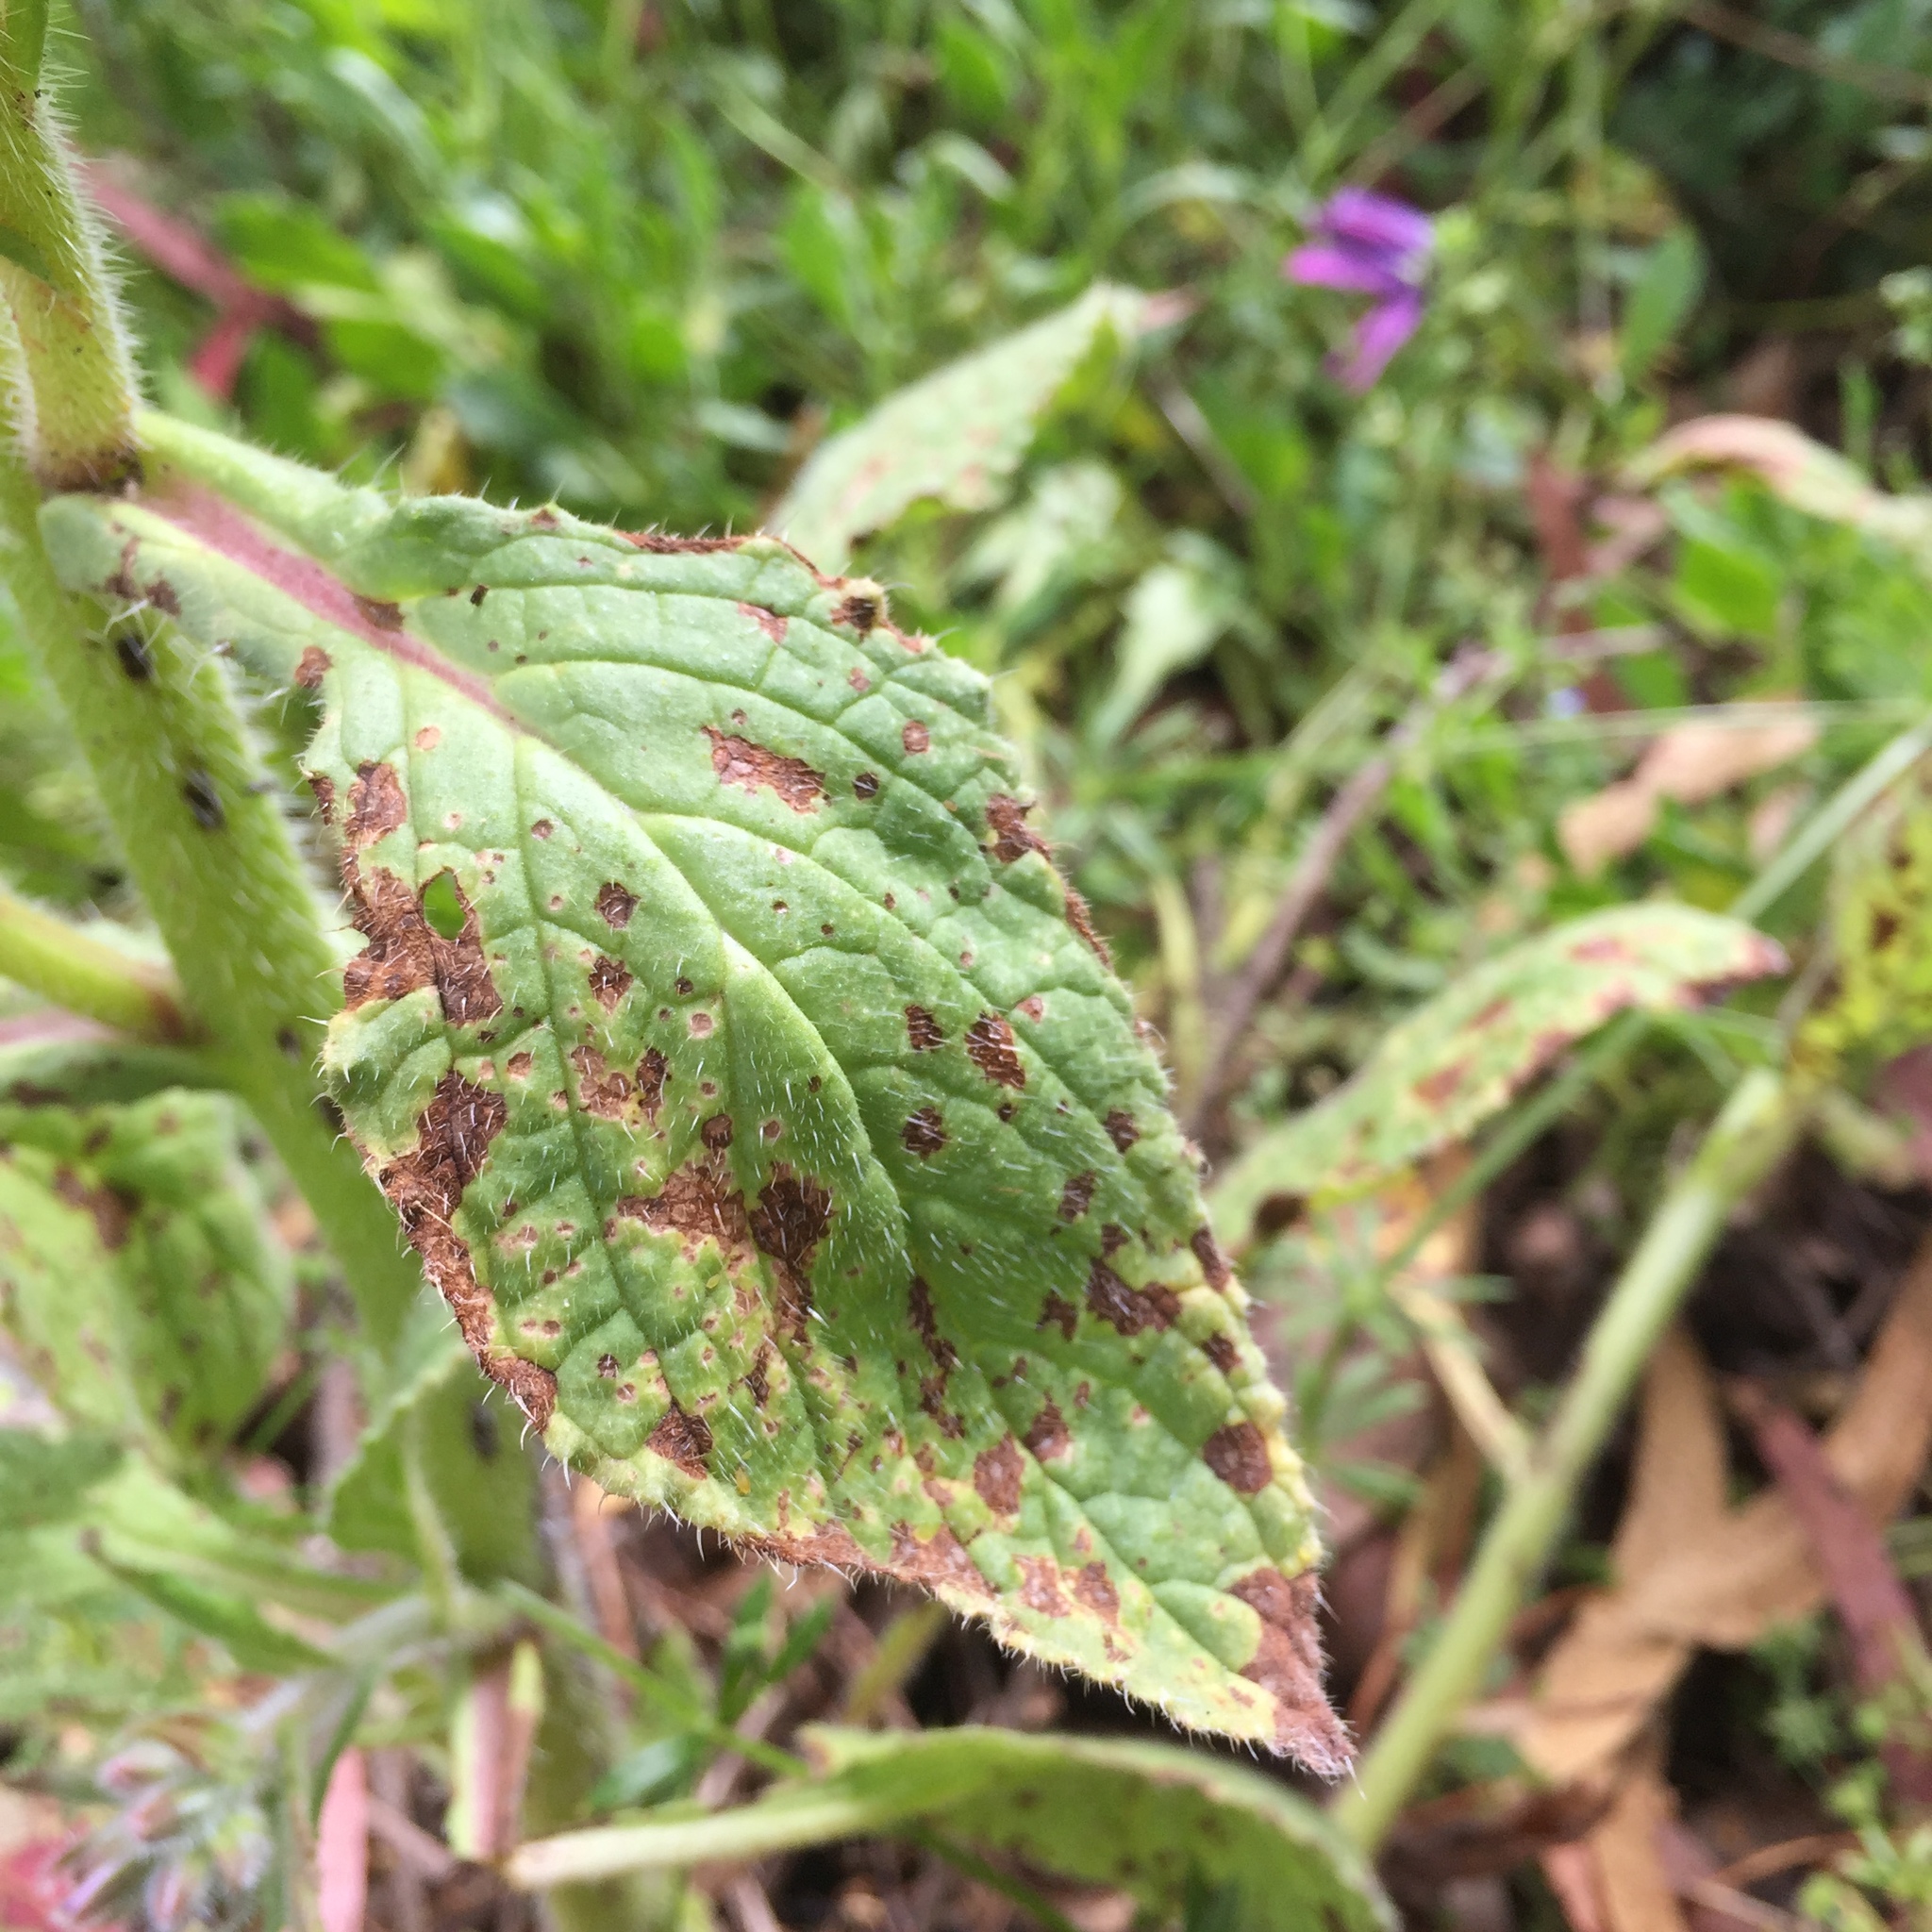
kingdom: Plantae
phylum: Tracheophyta
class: Magnoliopsida
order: Boraginales
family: Boraginaceae
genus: Borago
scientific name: Borago officinalis
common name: Borage
